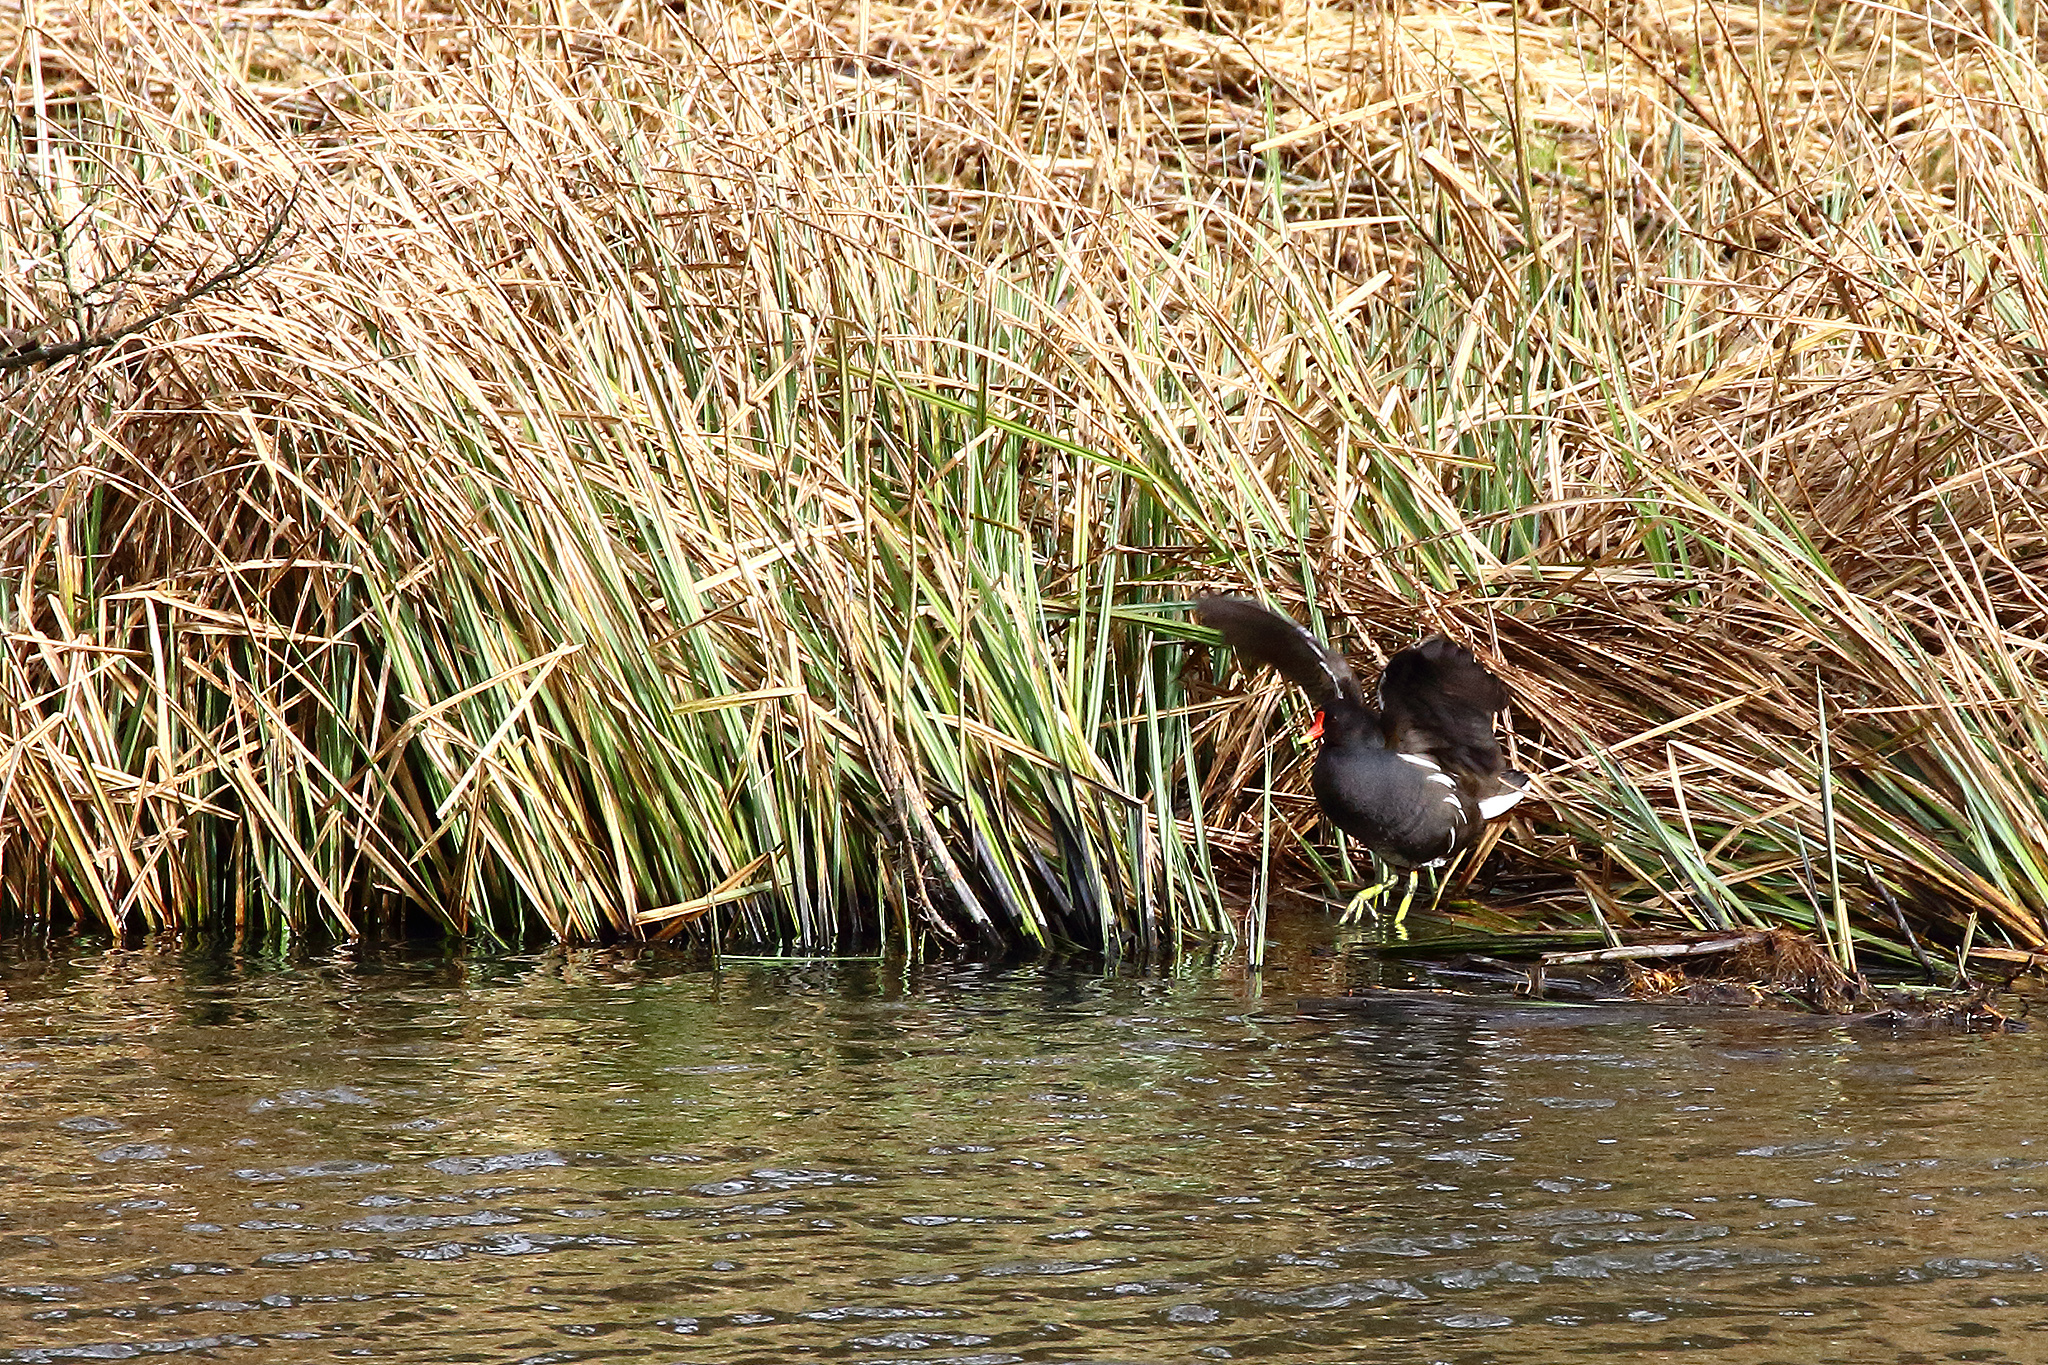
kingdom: Animalia
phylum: Chordata
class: Aves
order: Gruiformes
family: Rallidae
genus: Gallinula
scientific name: Gallinula chloropus
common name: Common moorhen
